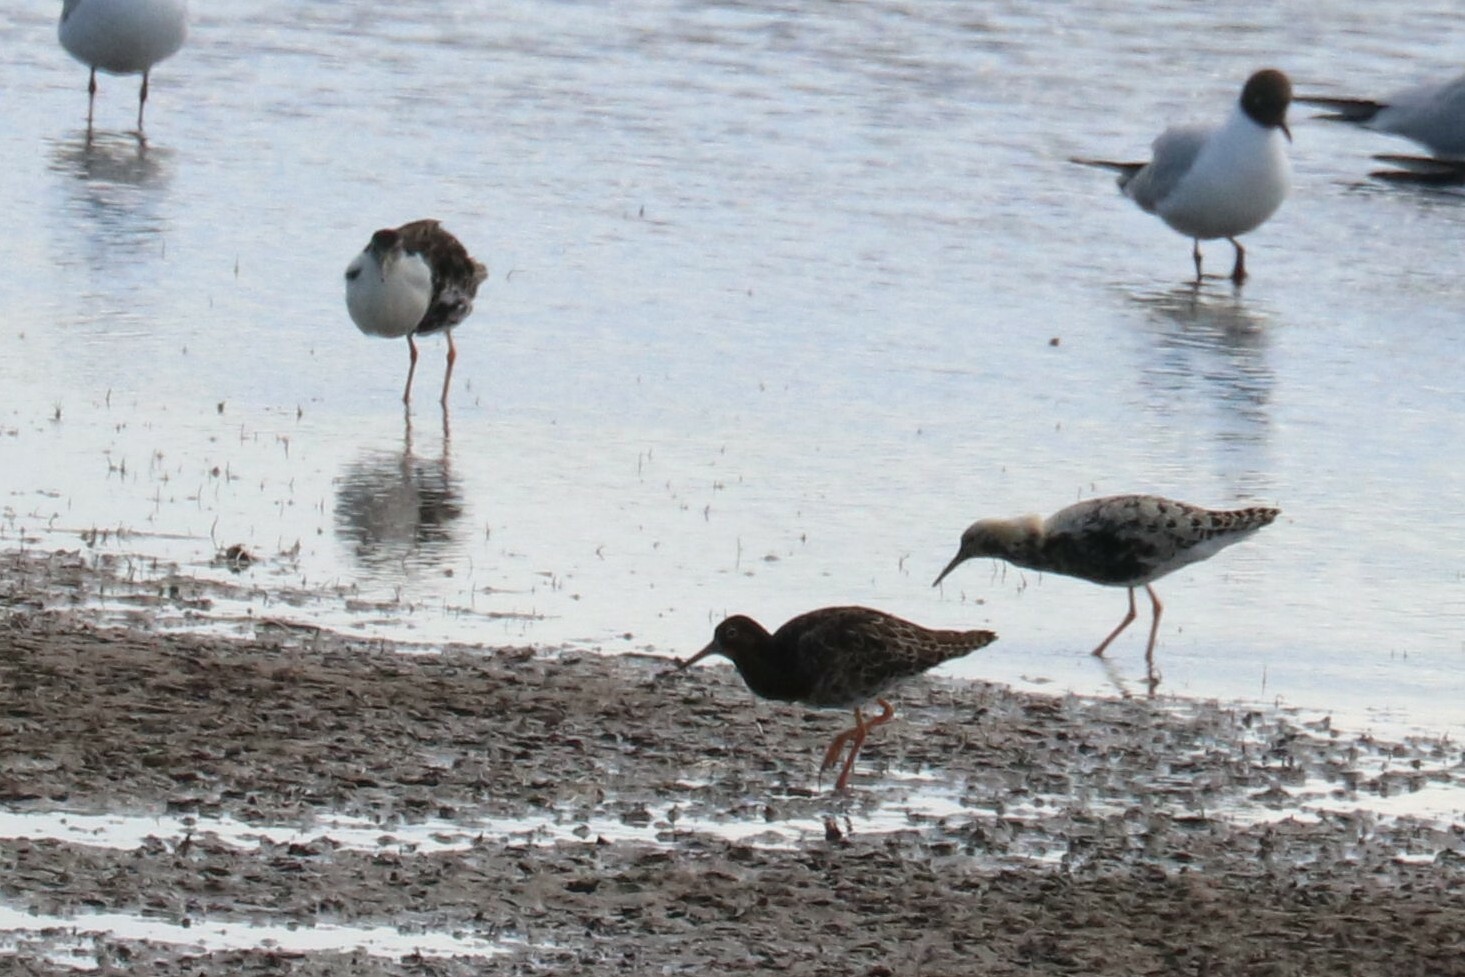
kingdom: Animalia
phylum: Chordata
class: Aves
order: Charadriiformes
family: Scolopacidae
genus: Tringa
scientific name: Tringa erythropus
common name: Spotted redshank
